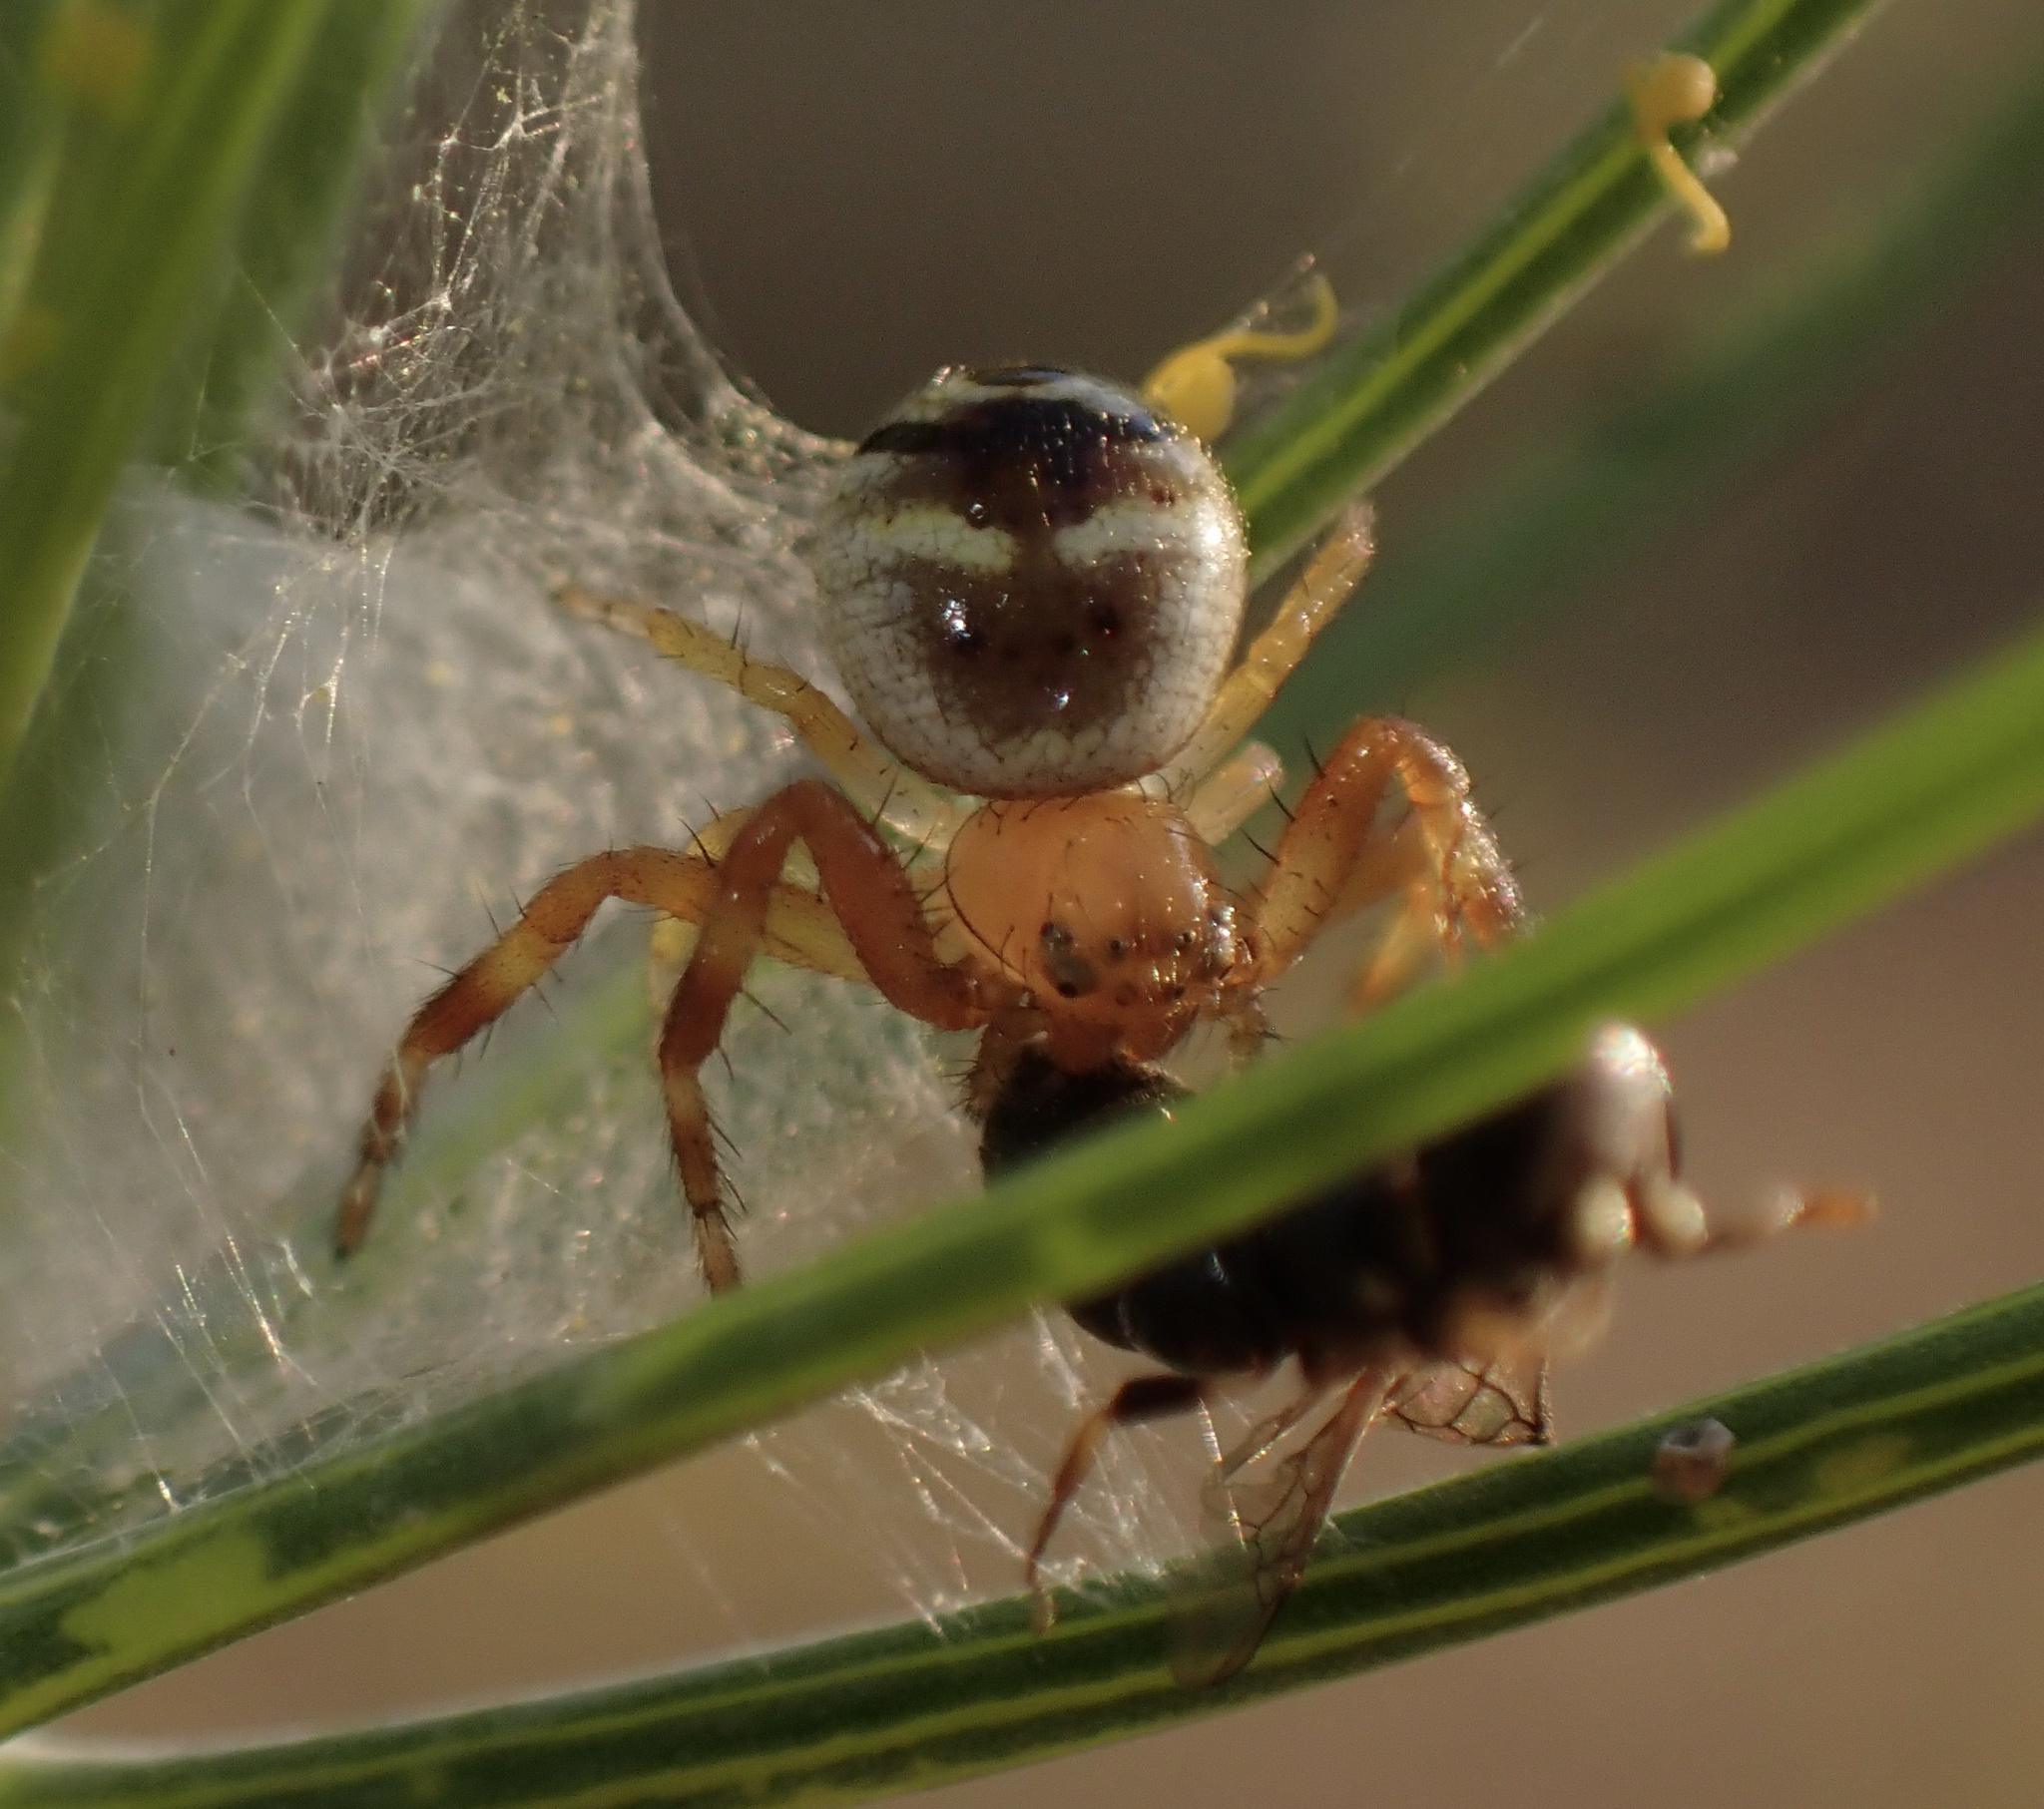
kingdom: Animalia
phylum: Arthropoda
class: Arachnida
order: Araneae
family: Thomisidae
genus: Synema
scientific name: Synema globosum
